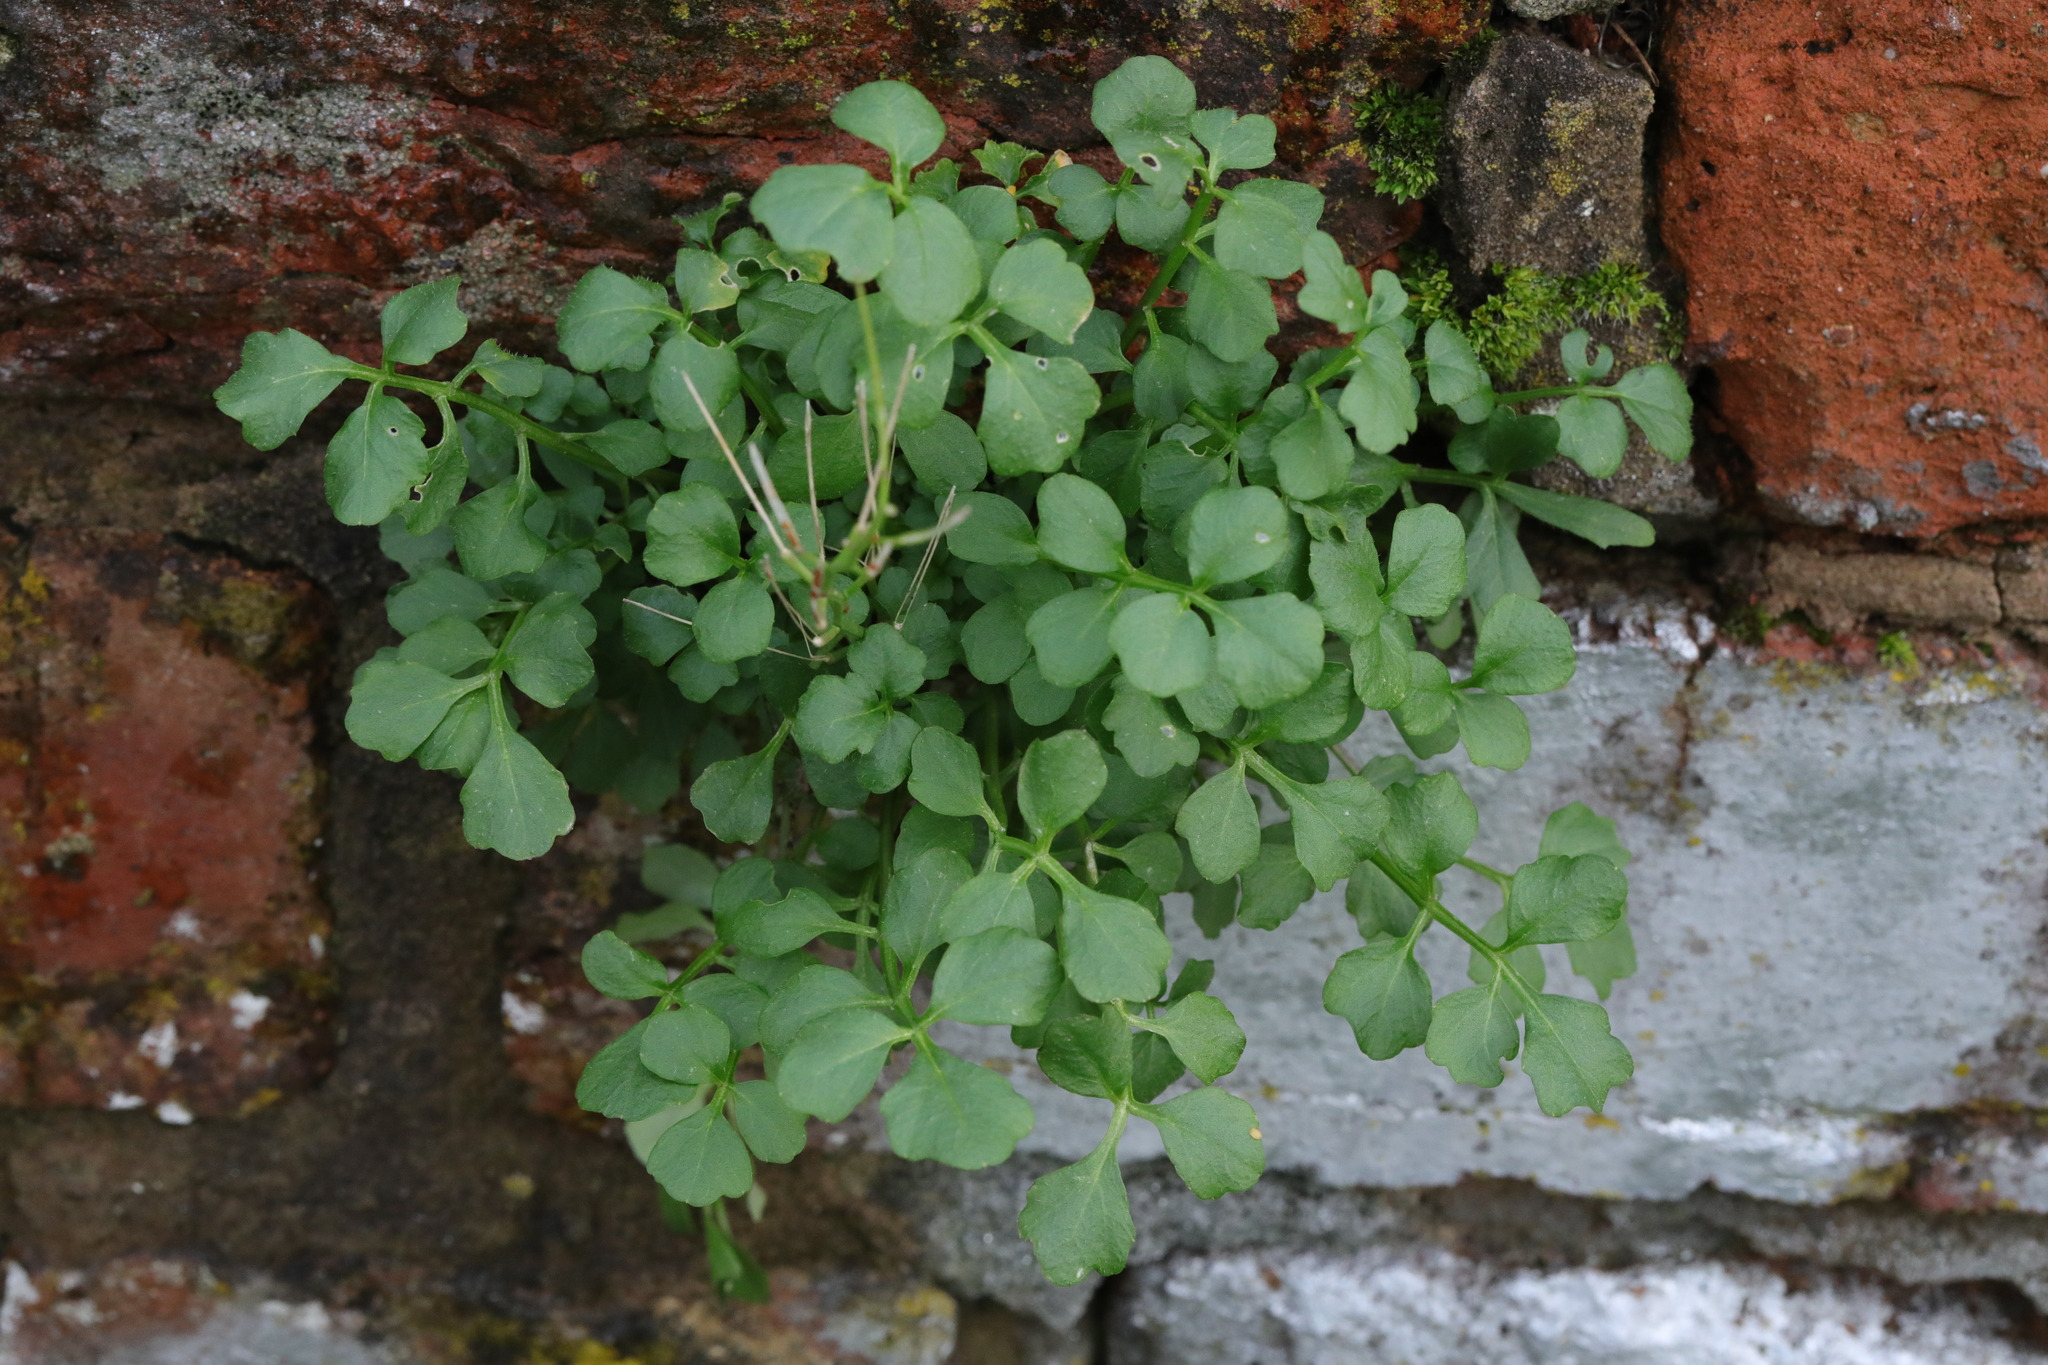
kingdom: Plantae
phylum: Tracheophyta
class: Magnoliopsida
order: Brassicales
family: Brassicaceae
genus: Cardamine
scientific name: Cardamine hirsuta
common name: Hairy bittercress
